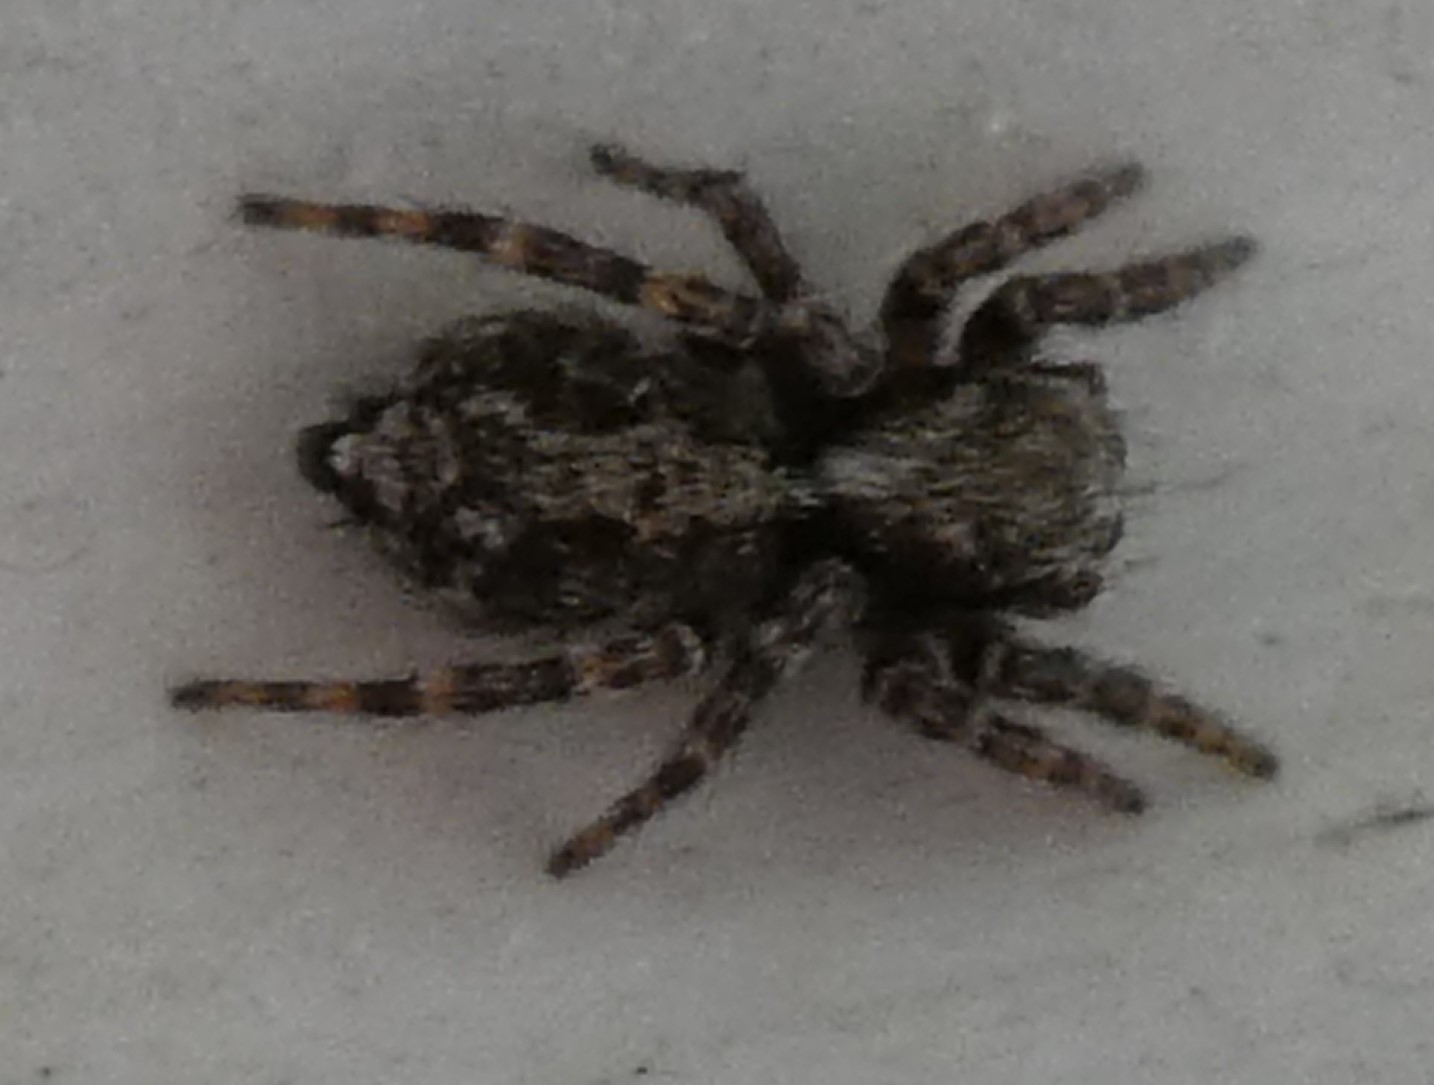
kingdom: Animalia
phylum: Arthropoda
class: Arachnida
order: Araneae
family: Salticidae
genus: Pseudeuophrys
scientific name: Pseudeuophrys lanigera
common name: Jumping spider
